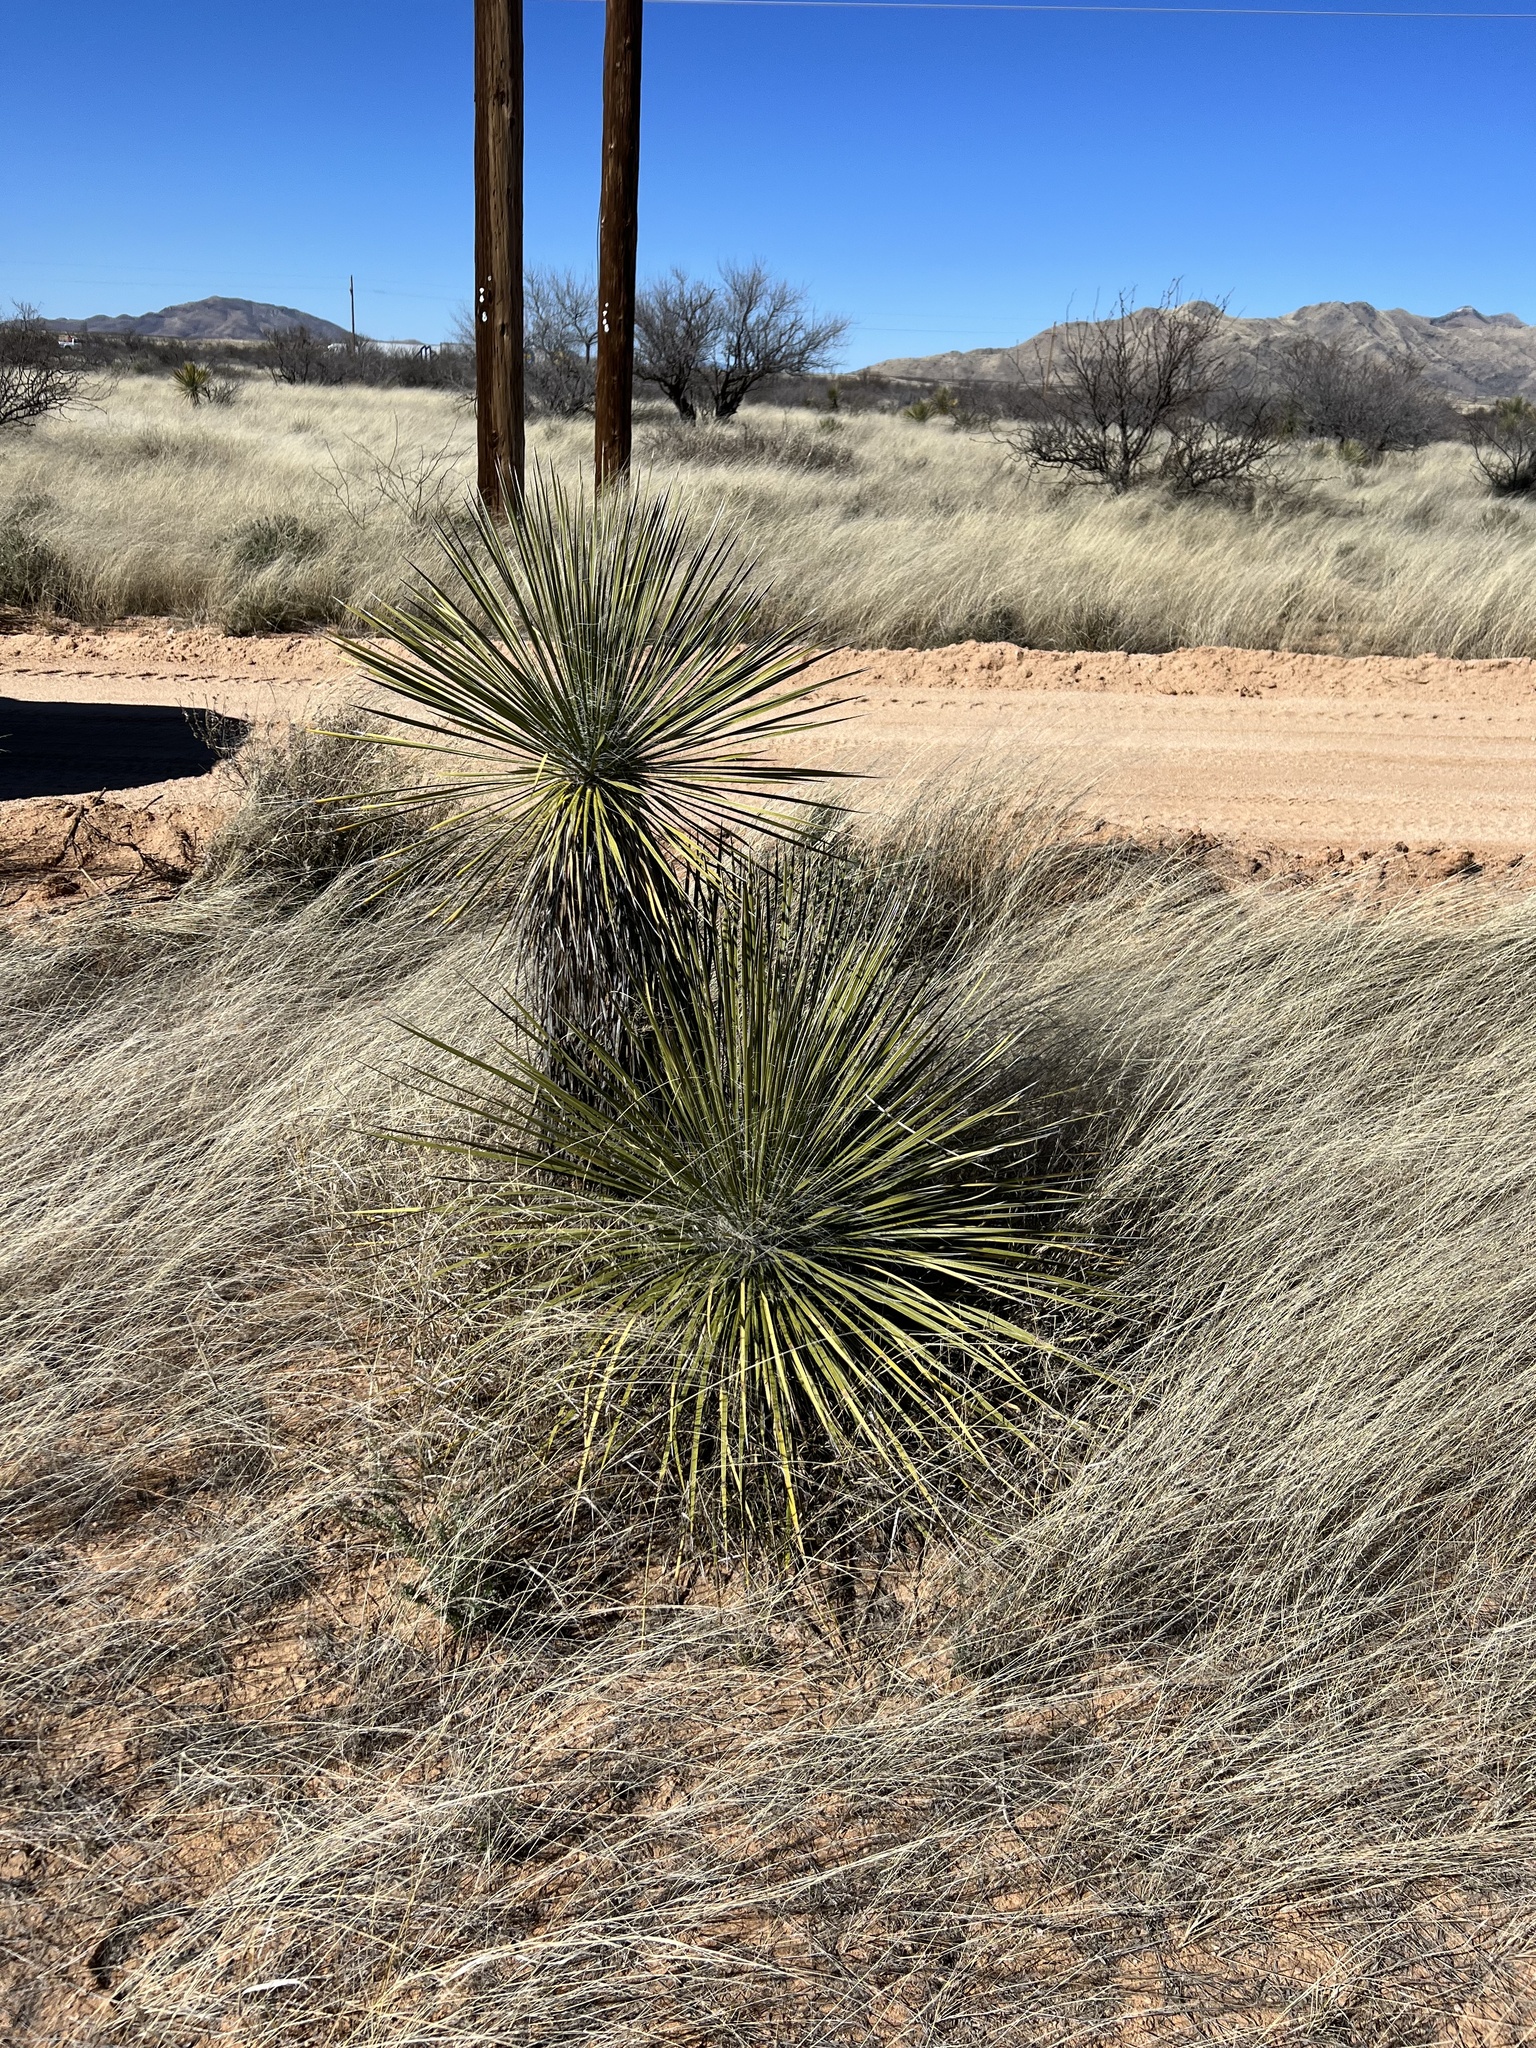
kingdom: Plantae
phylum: Tracheophyta
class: Liliopsida
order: Asparagales
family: Asparagaceae
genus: Yucca
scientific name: Yucca elata
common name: Palmella
